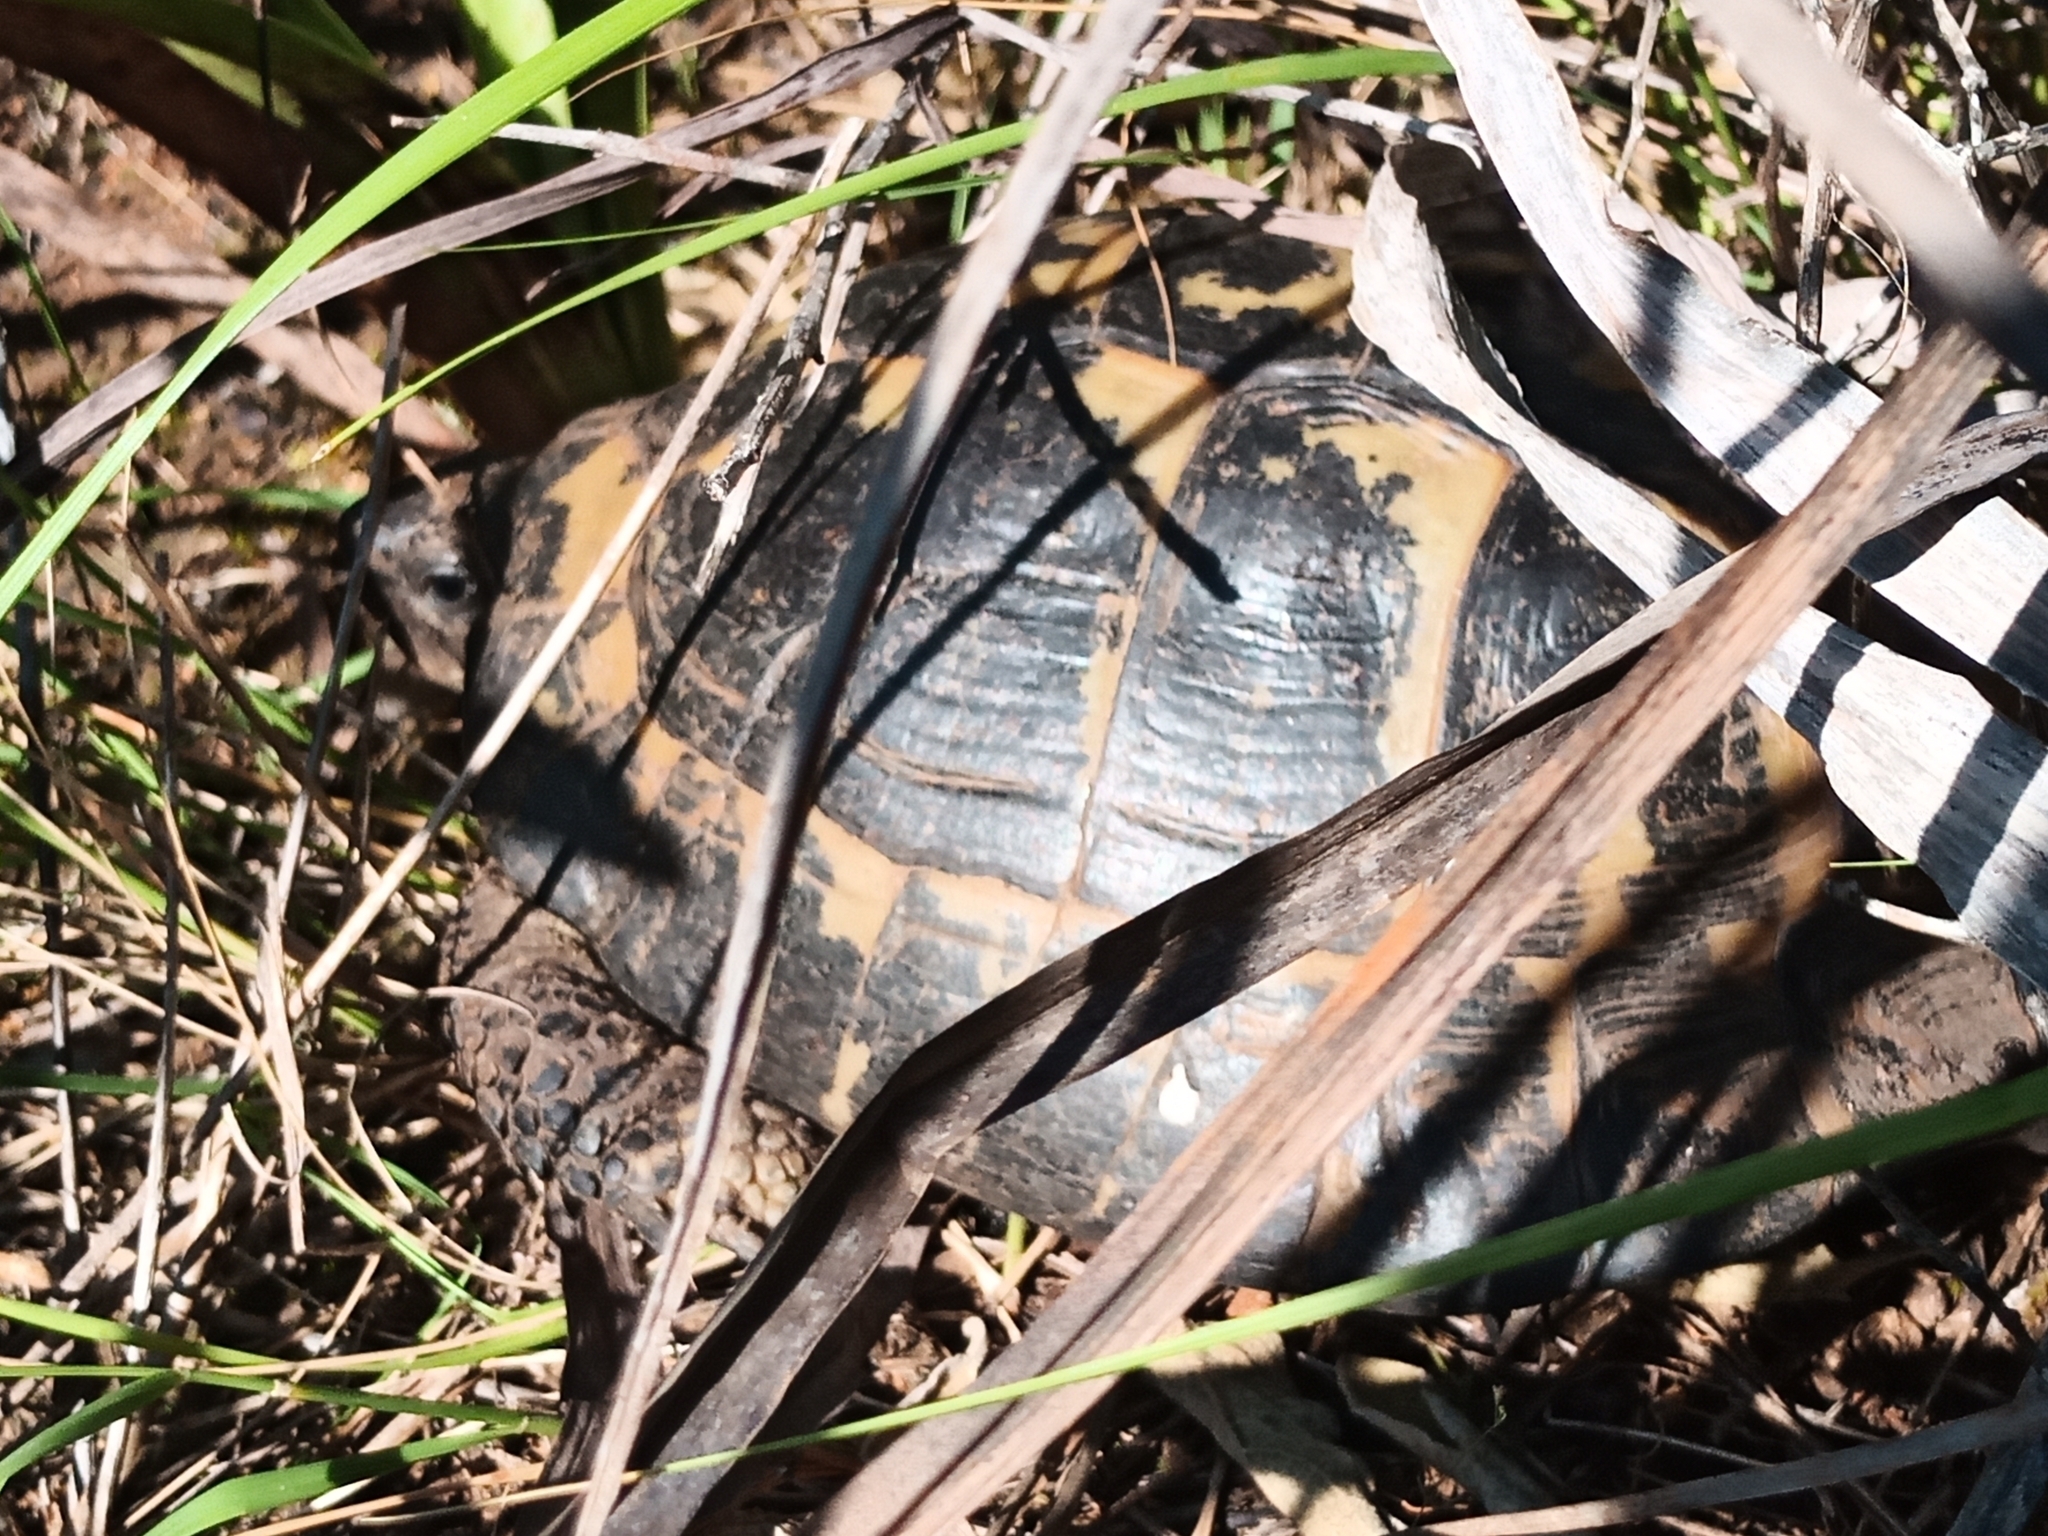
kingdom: Animalia
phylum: Chordata
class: Testudines
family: Testudinidae
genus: Testudo
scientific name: Testudo hermanni
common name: Hermann's tortoise
